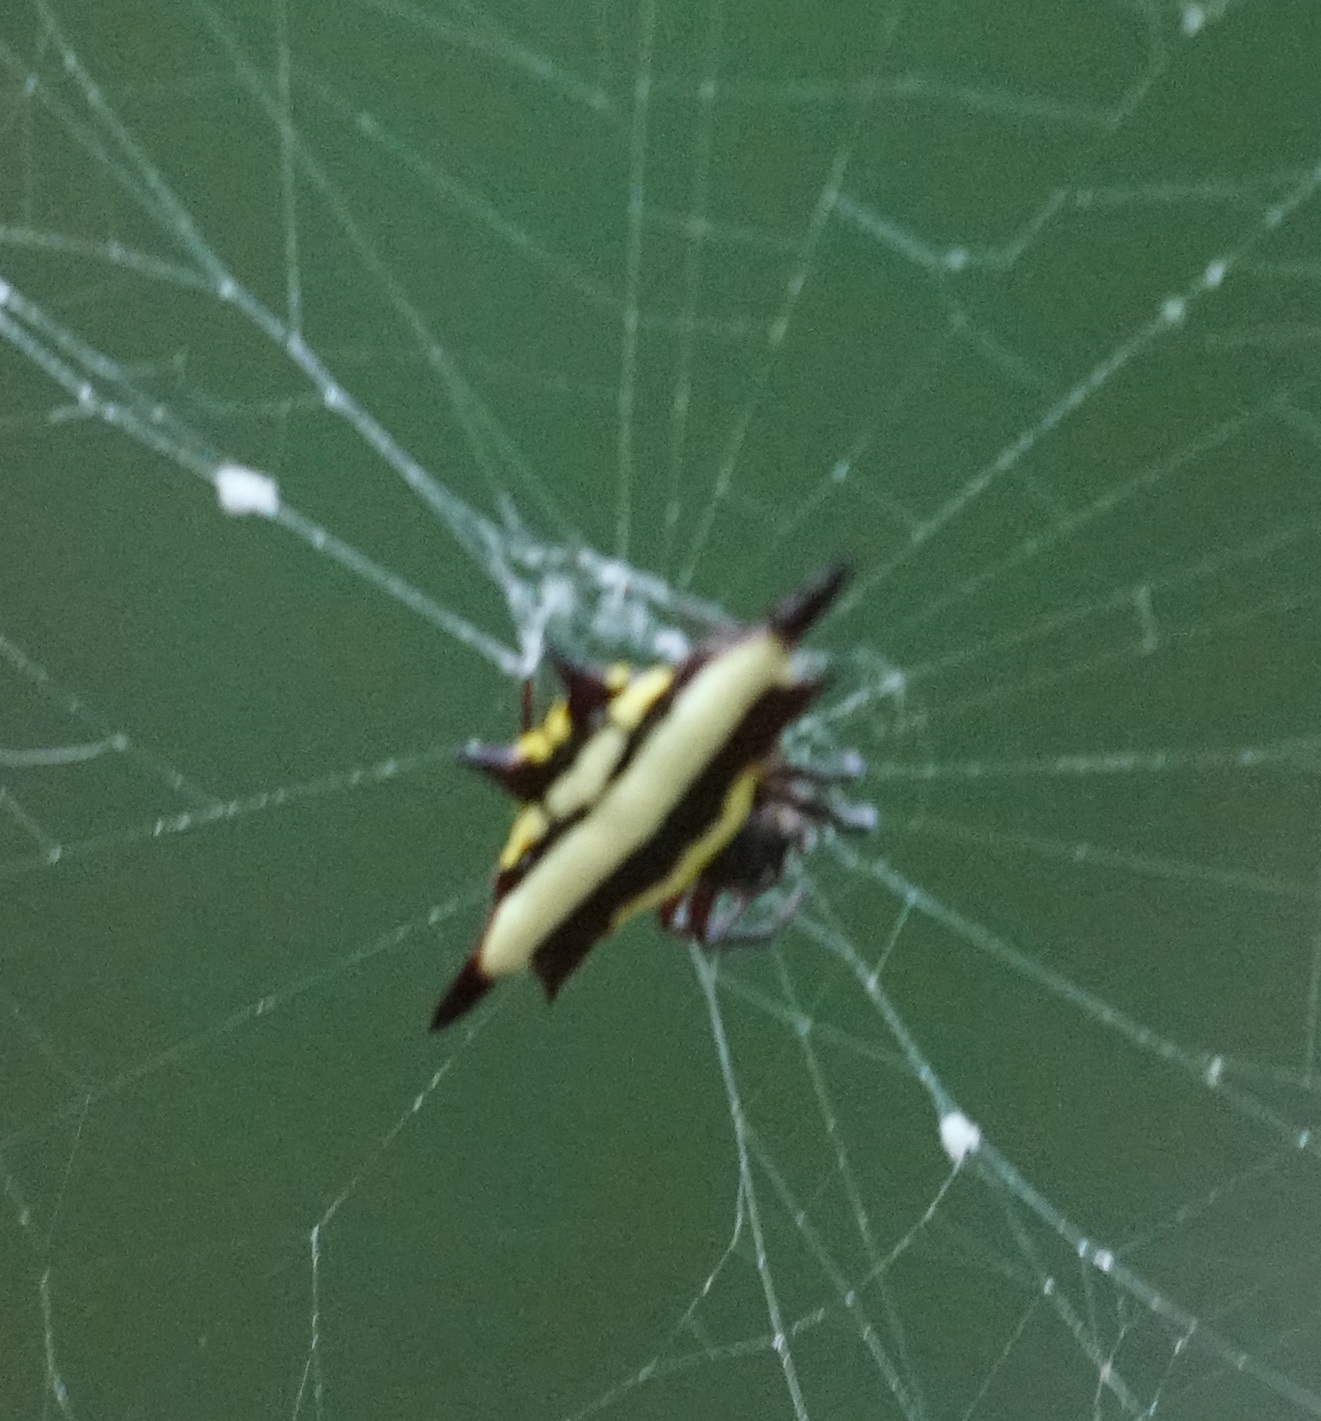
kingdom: Animalia
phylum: Arthropoda
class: Arachnida
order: Araneae
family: Araneidae
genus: Gasteracantha
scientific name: Gasteracantha fornicata
